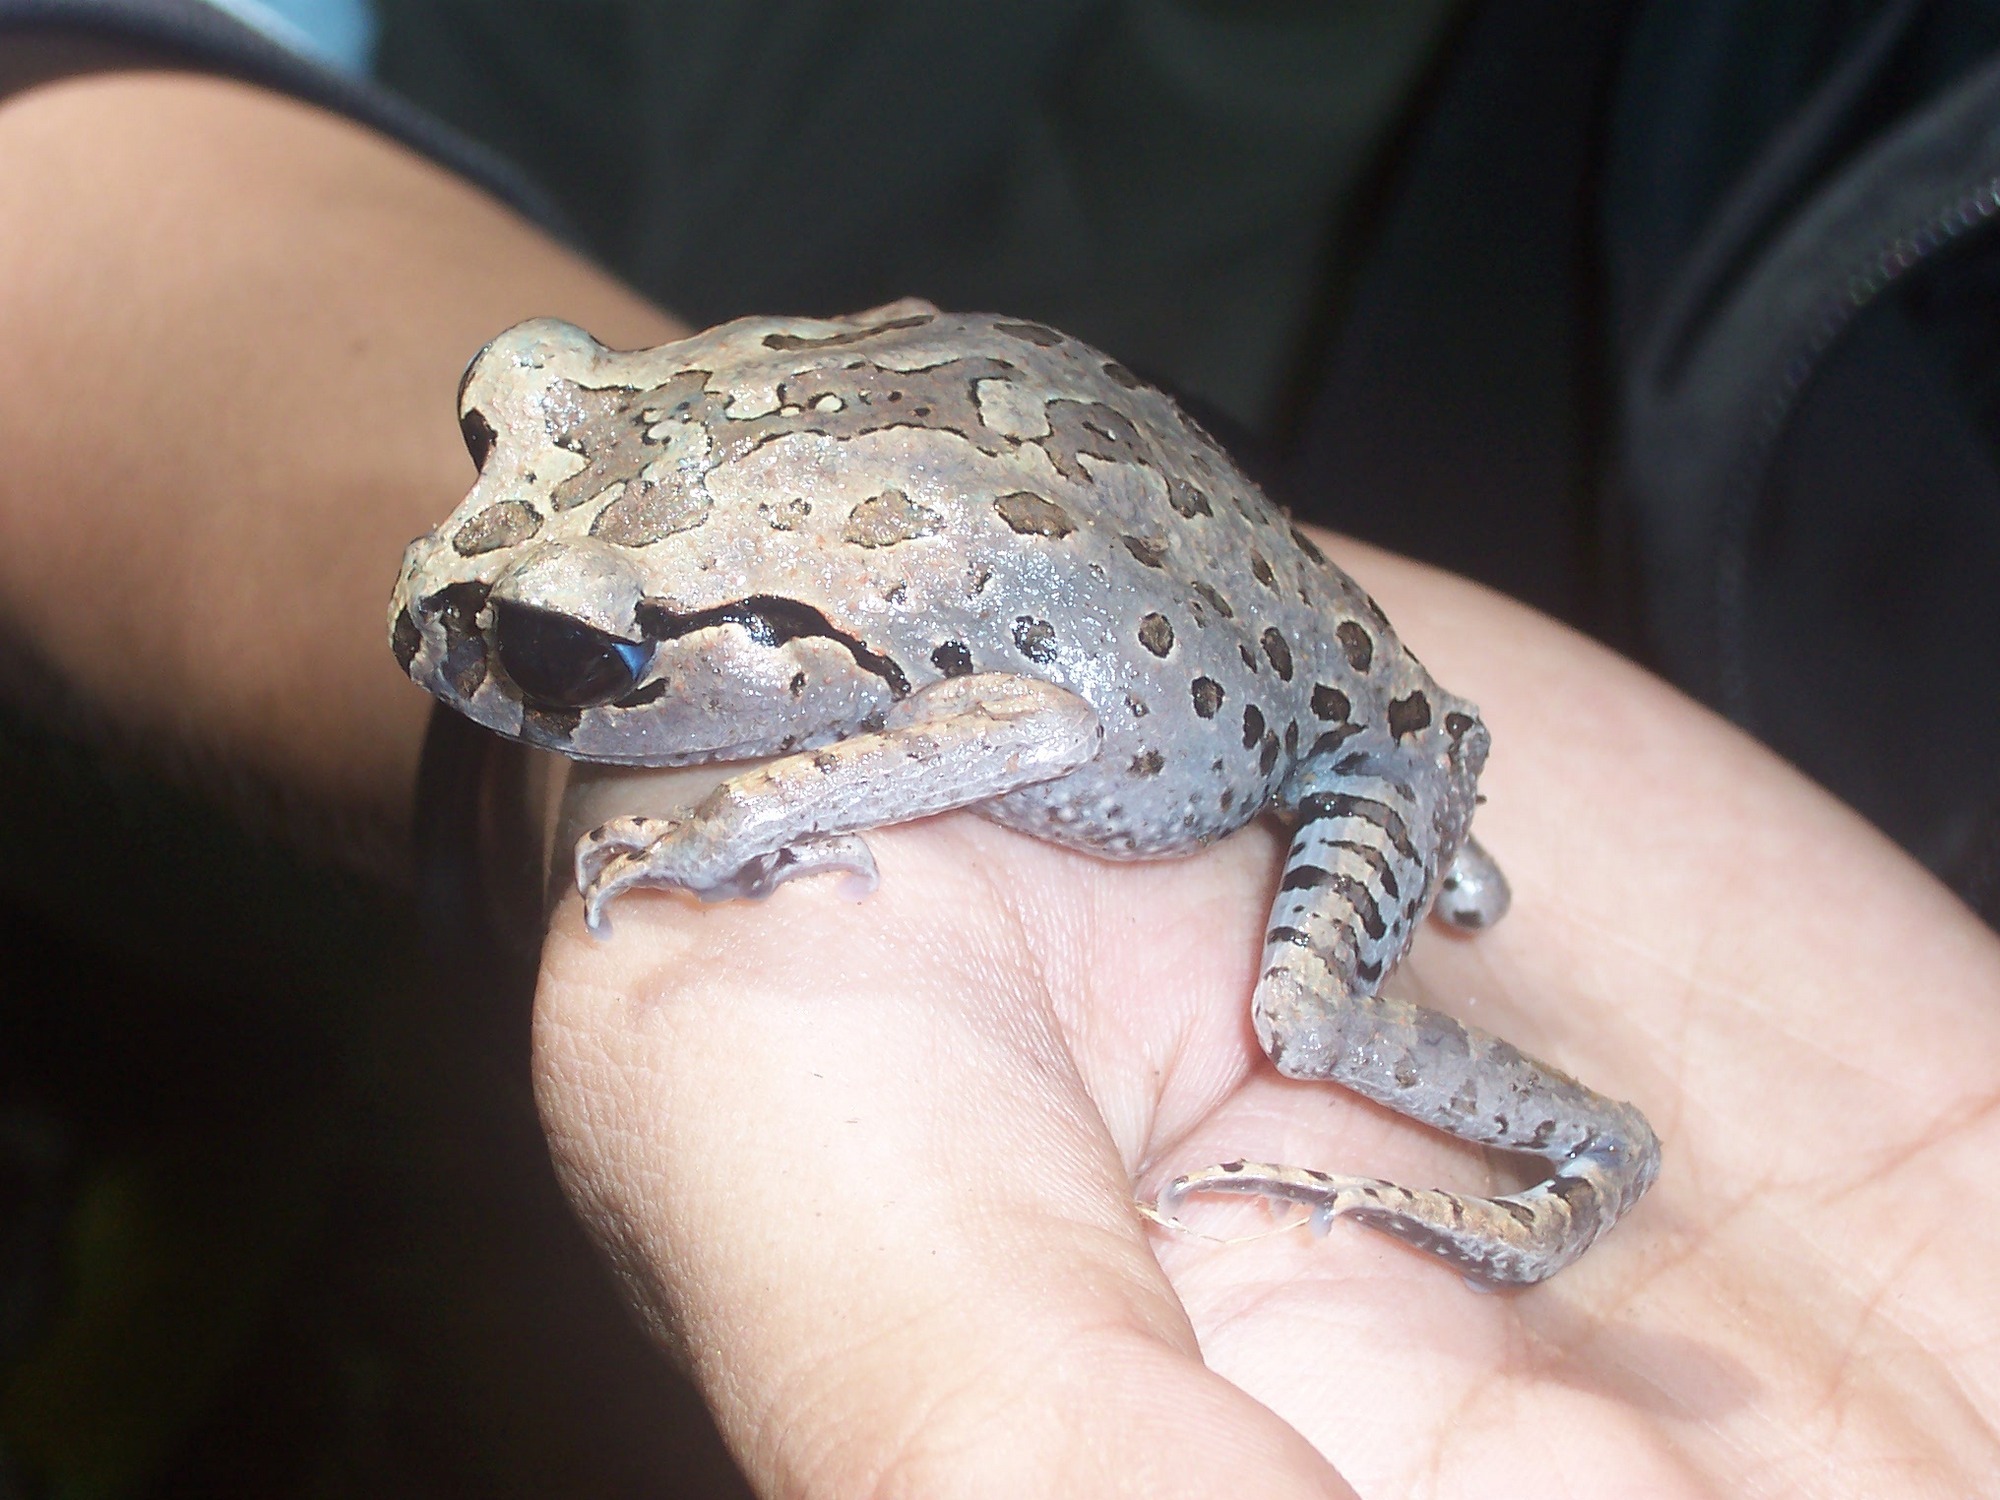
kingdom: Animalia
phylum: Chordata
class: Amphibia
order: Anura
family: Megophryidae
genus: Leptobrachium
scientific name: Leptobrachium hasseltii
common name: Hasselt's litter frog
